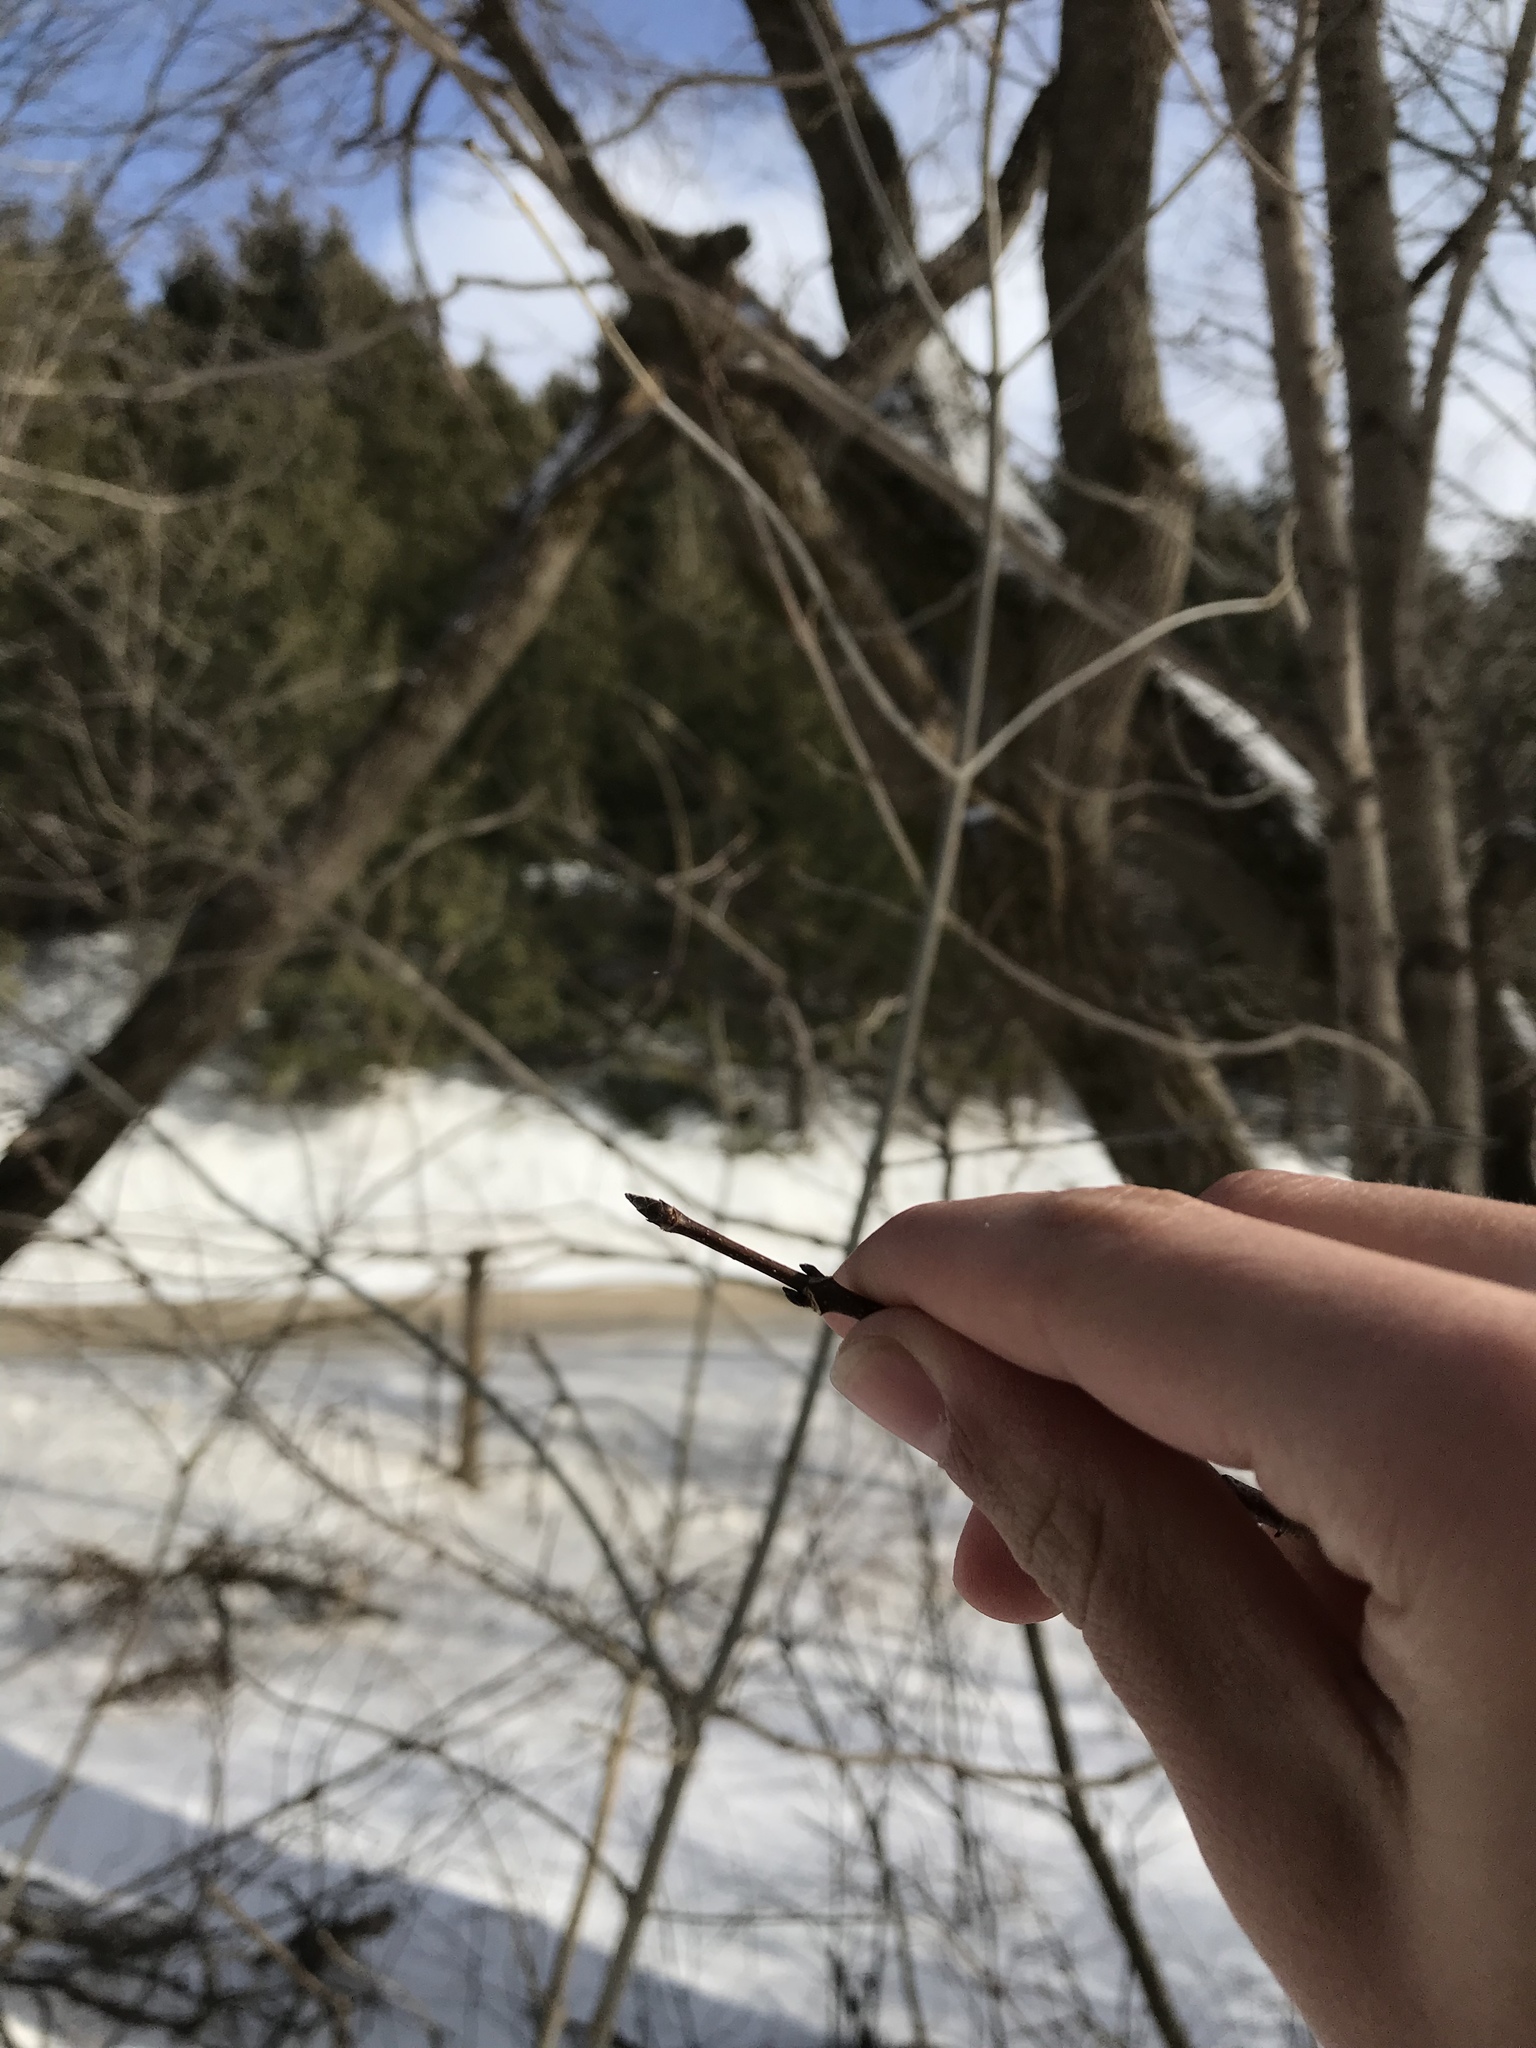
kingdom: Plantae
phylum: Tracheophyta
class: Magnoliopsida
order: Sapindales
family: Sapindaceae
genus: Acer
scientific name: Acer saccharum
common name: Sugar maple
